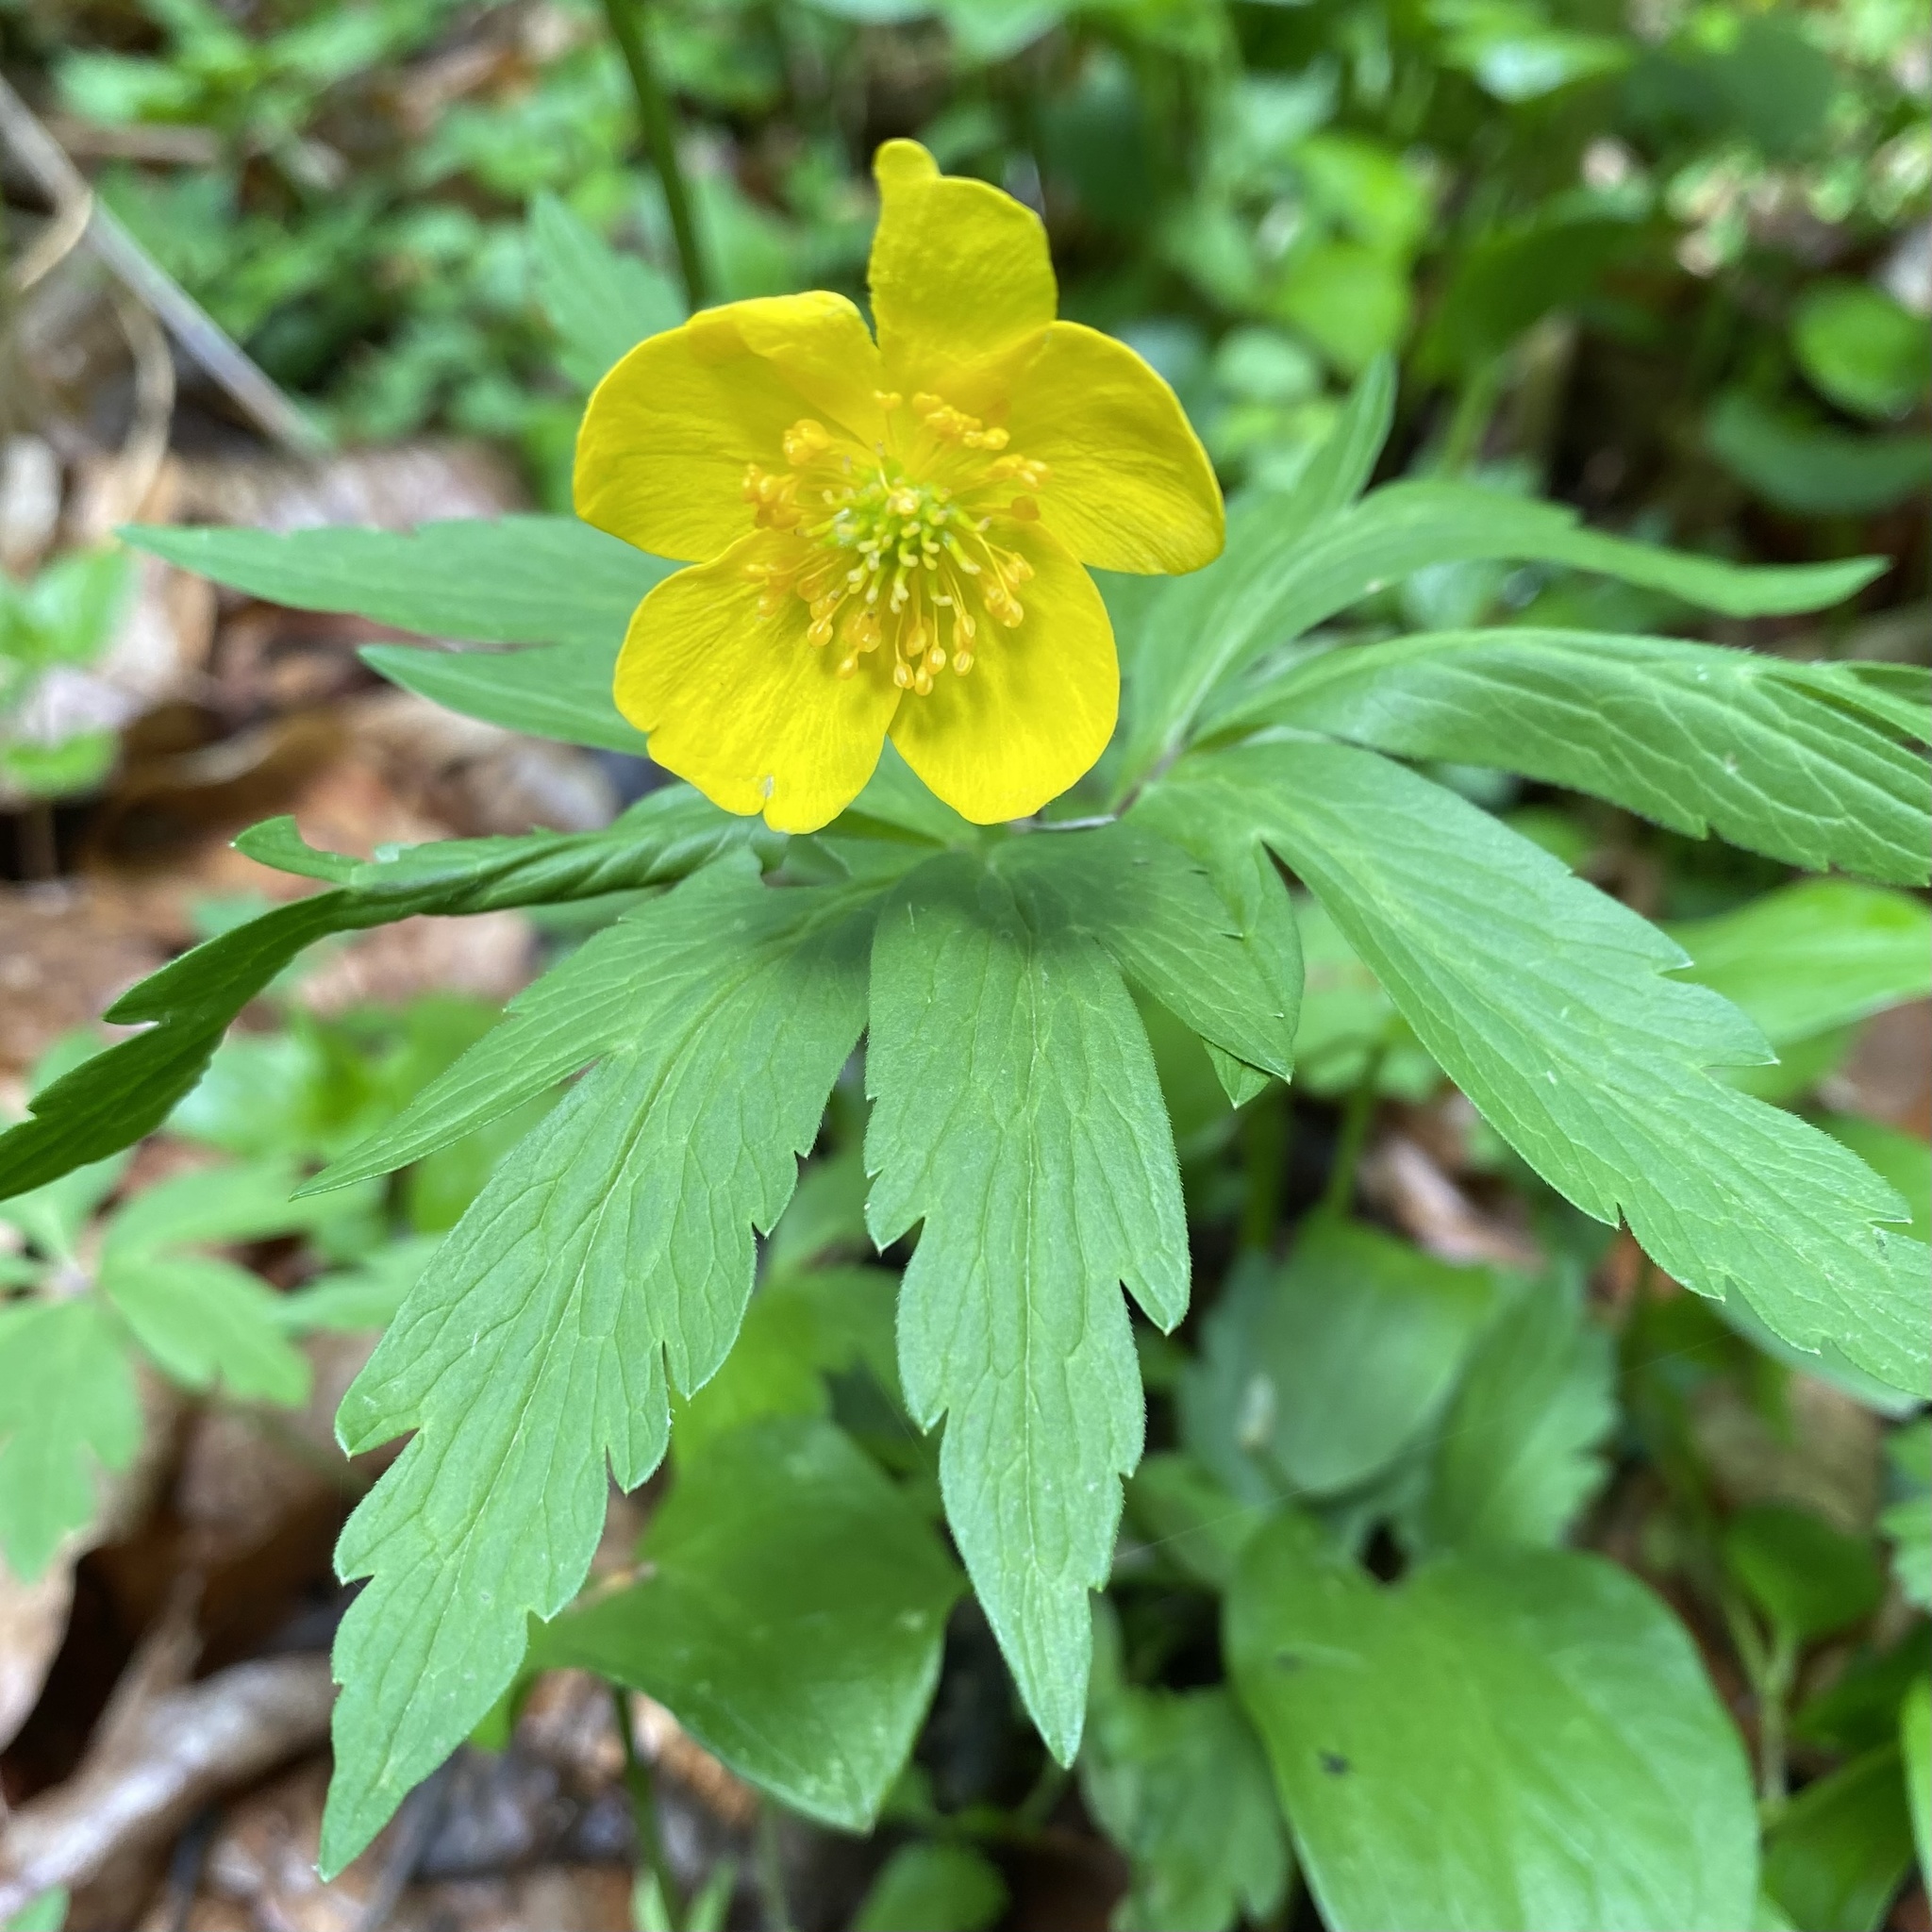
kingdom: Plantae
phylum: Tracheophyta
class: Magnoliopsida
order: Ranunculales
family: Ranunculaceae
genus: Anemone
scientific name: Anemone ranunculoides
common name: Yellow anemone
